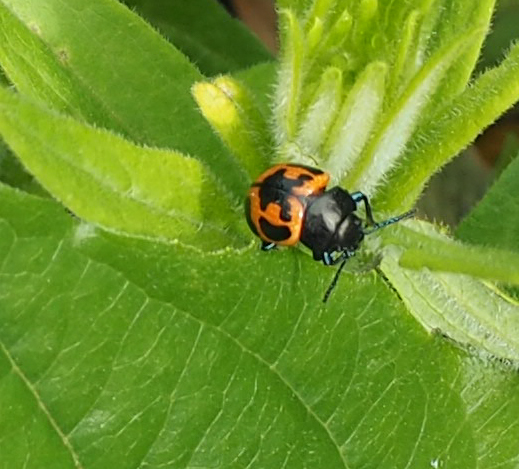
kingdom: Animalia
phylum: Arthropoda
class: Insecta
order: Coleoptera
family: Chrysomelidae
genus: Labidomera
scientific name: Labidomera clivicollis
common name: Swamp milkweed leaf beetle
